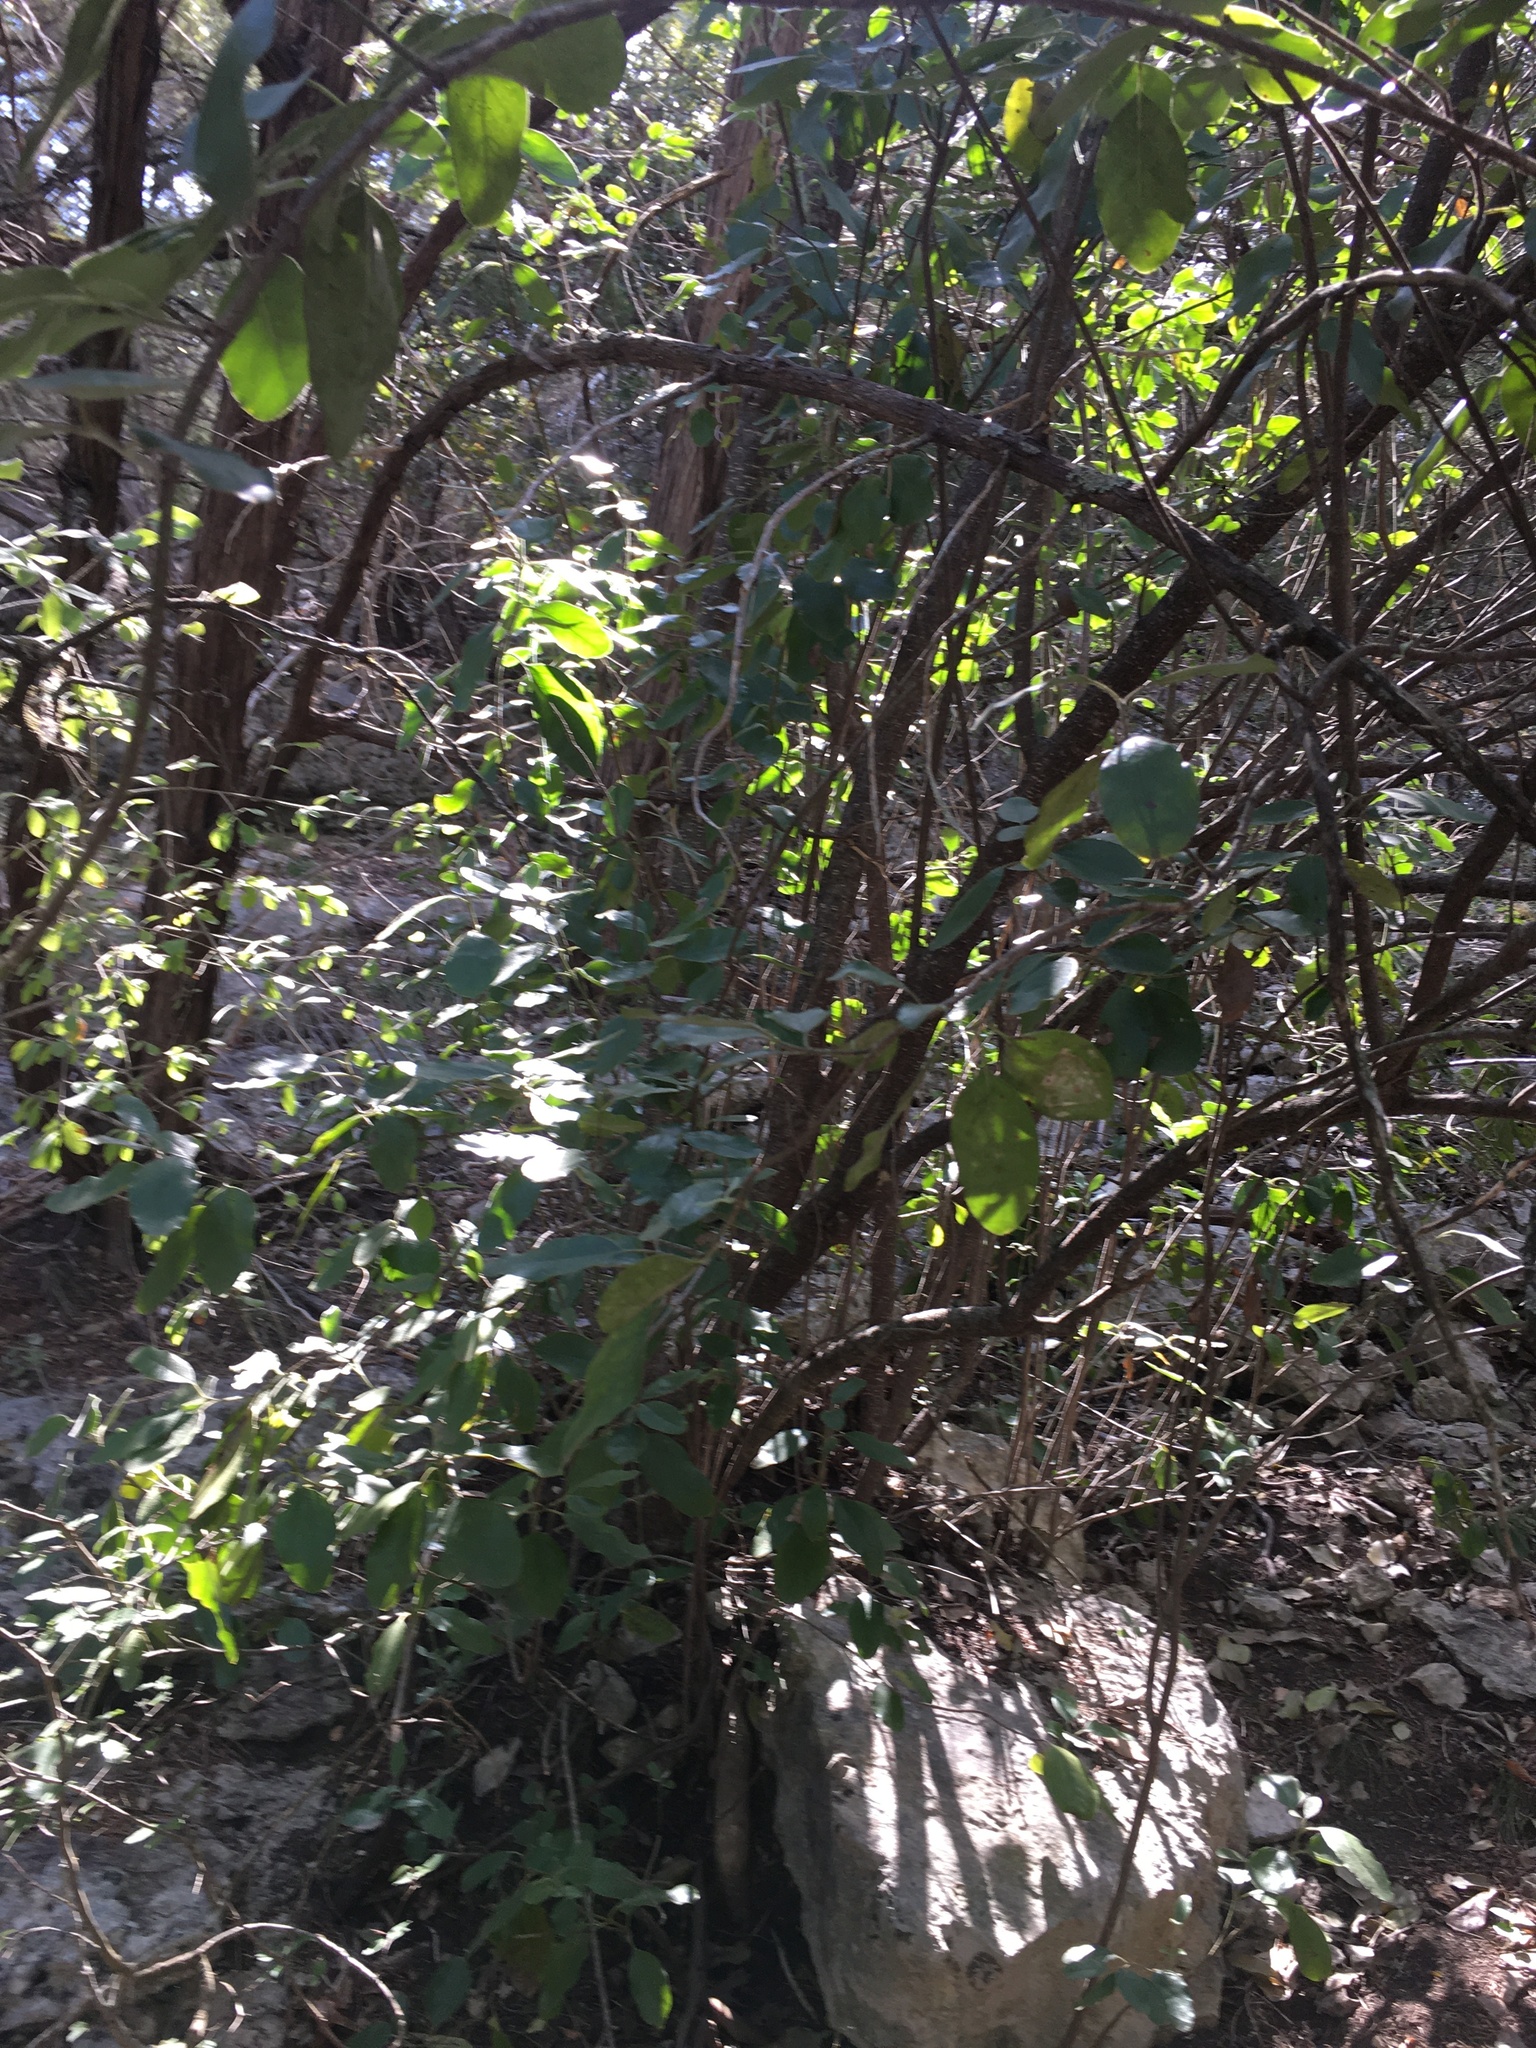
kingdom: Plantae
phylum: Tracheophyta
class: Magnoliopsida
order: Garryales
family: Garryaceae
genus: Garrya
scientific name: Garrya lindheimeri
